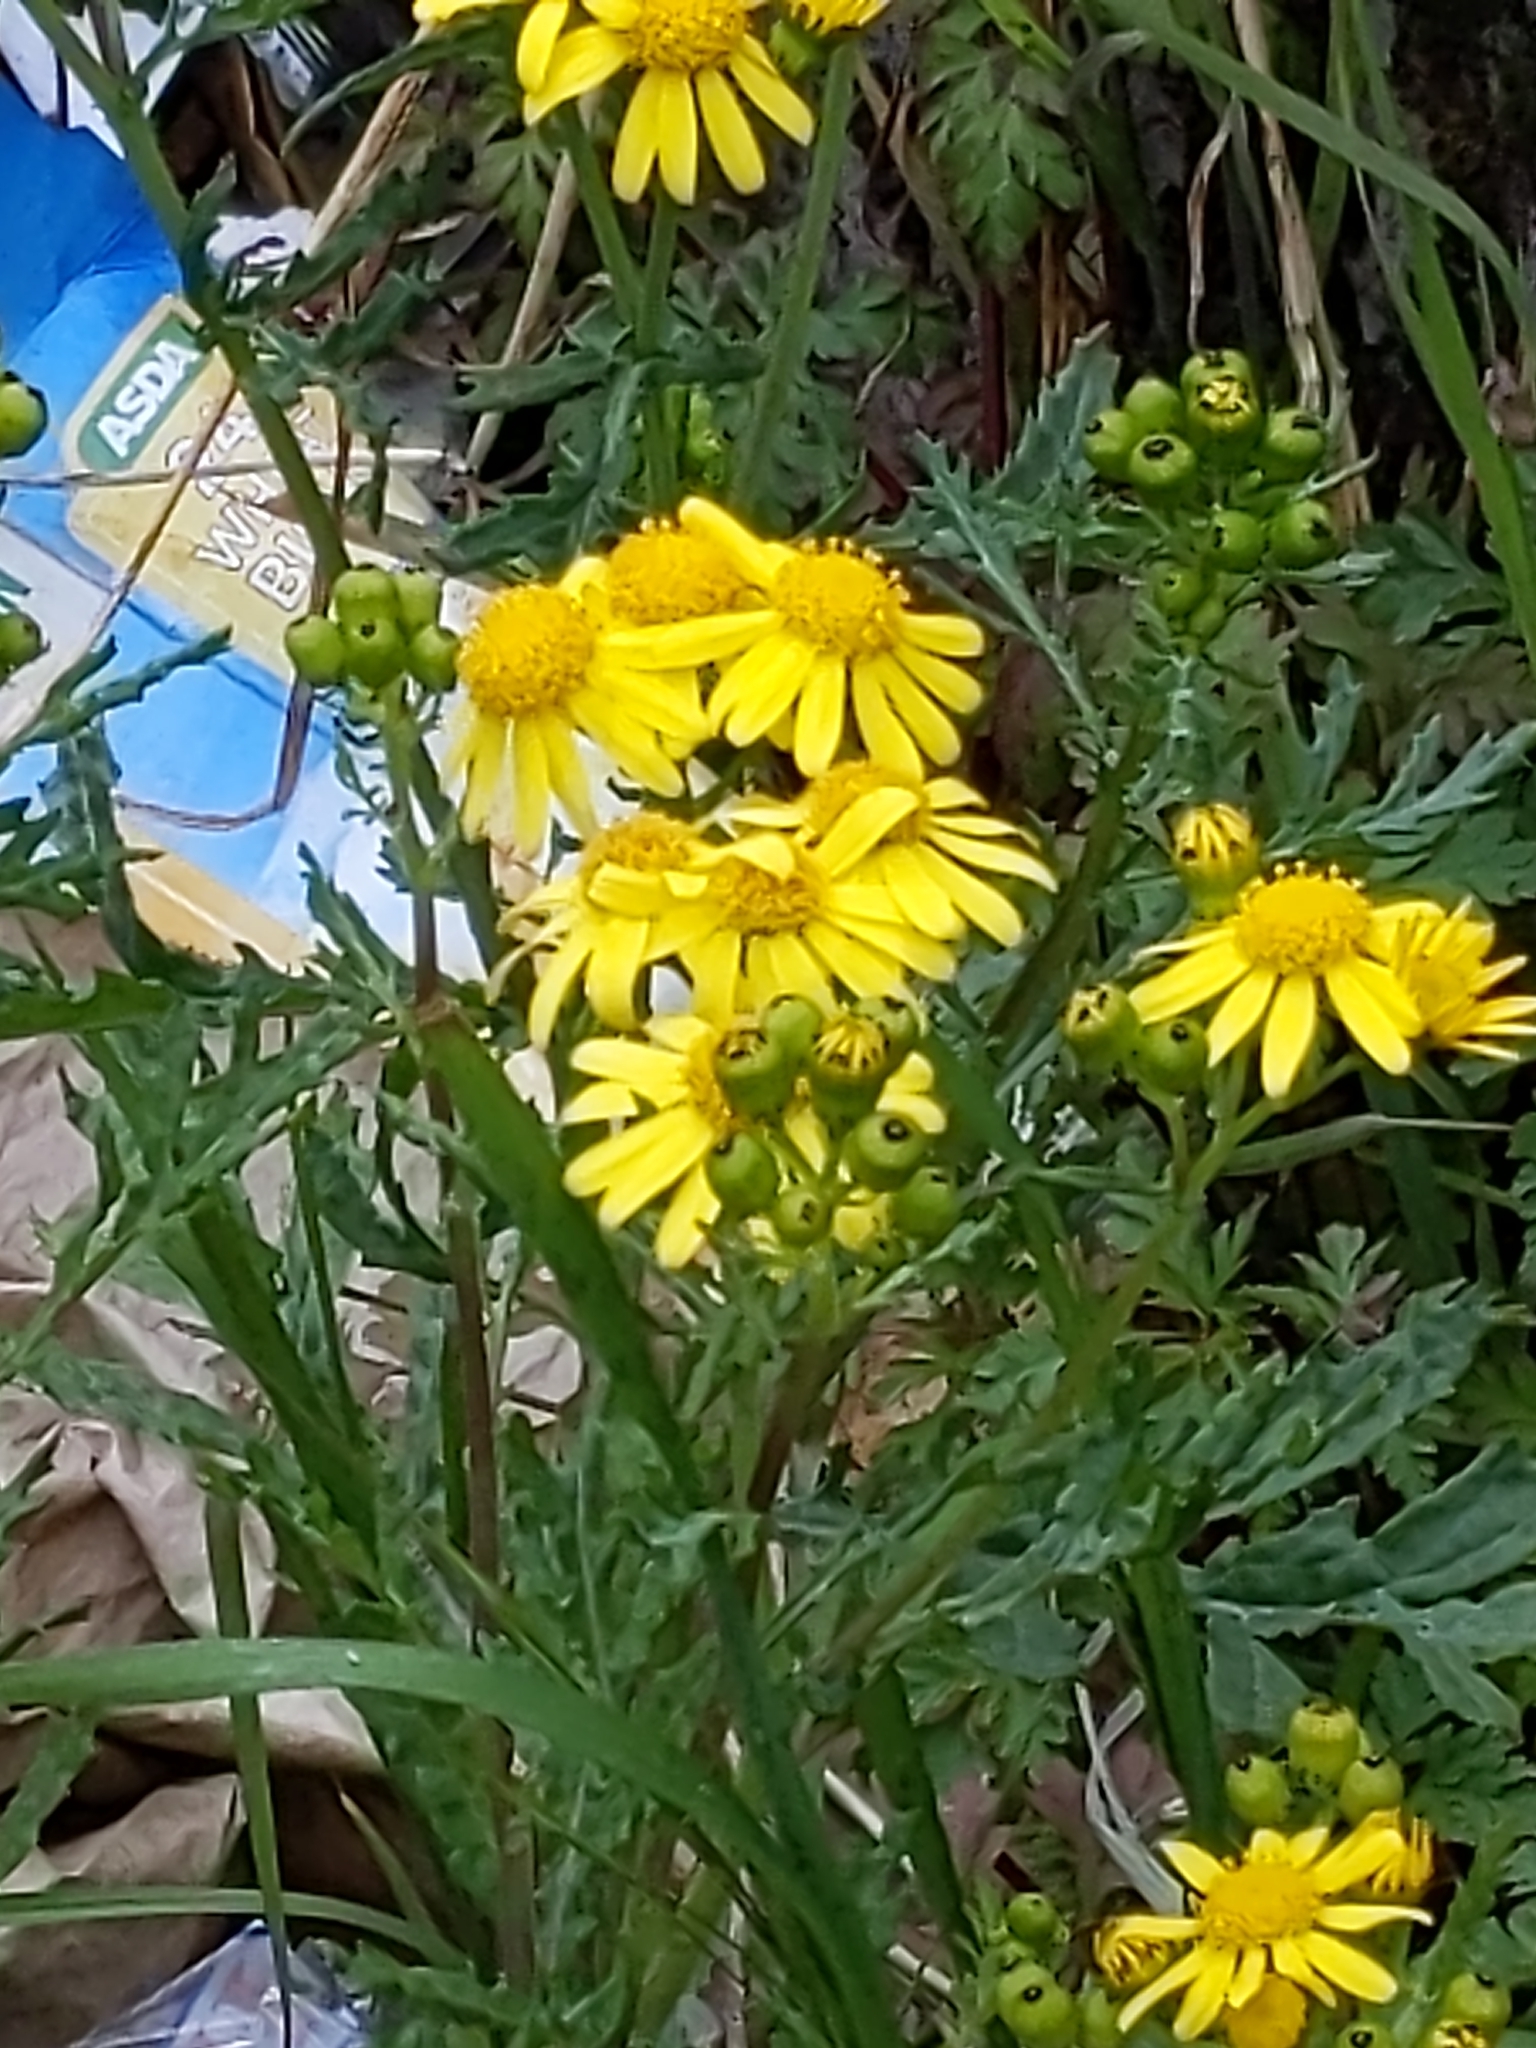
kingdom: Plantae
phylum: Tracheophyta
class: Magnoliopsida
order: Asterales
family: Asteraceae
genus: Senecio
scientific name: Senecio squalidus
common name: Oxford ragwort
